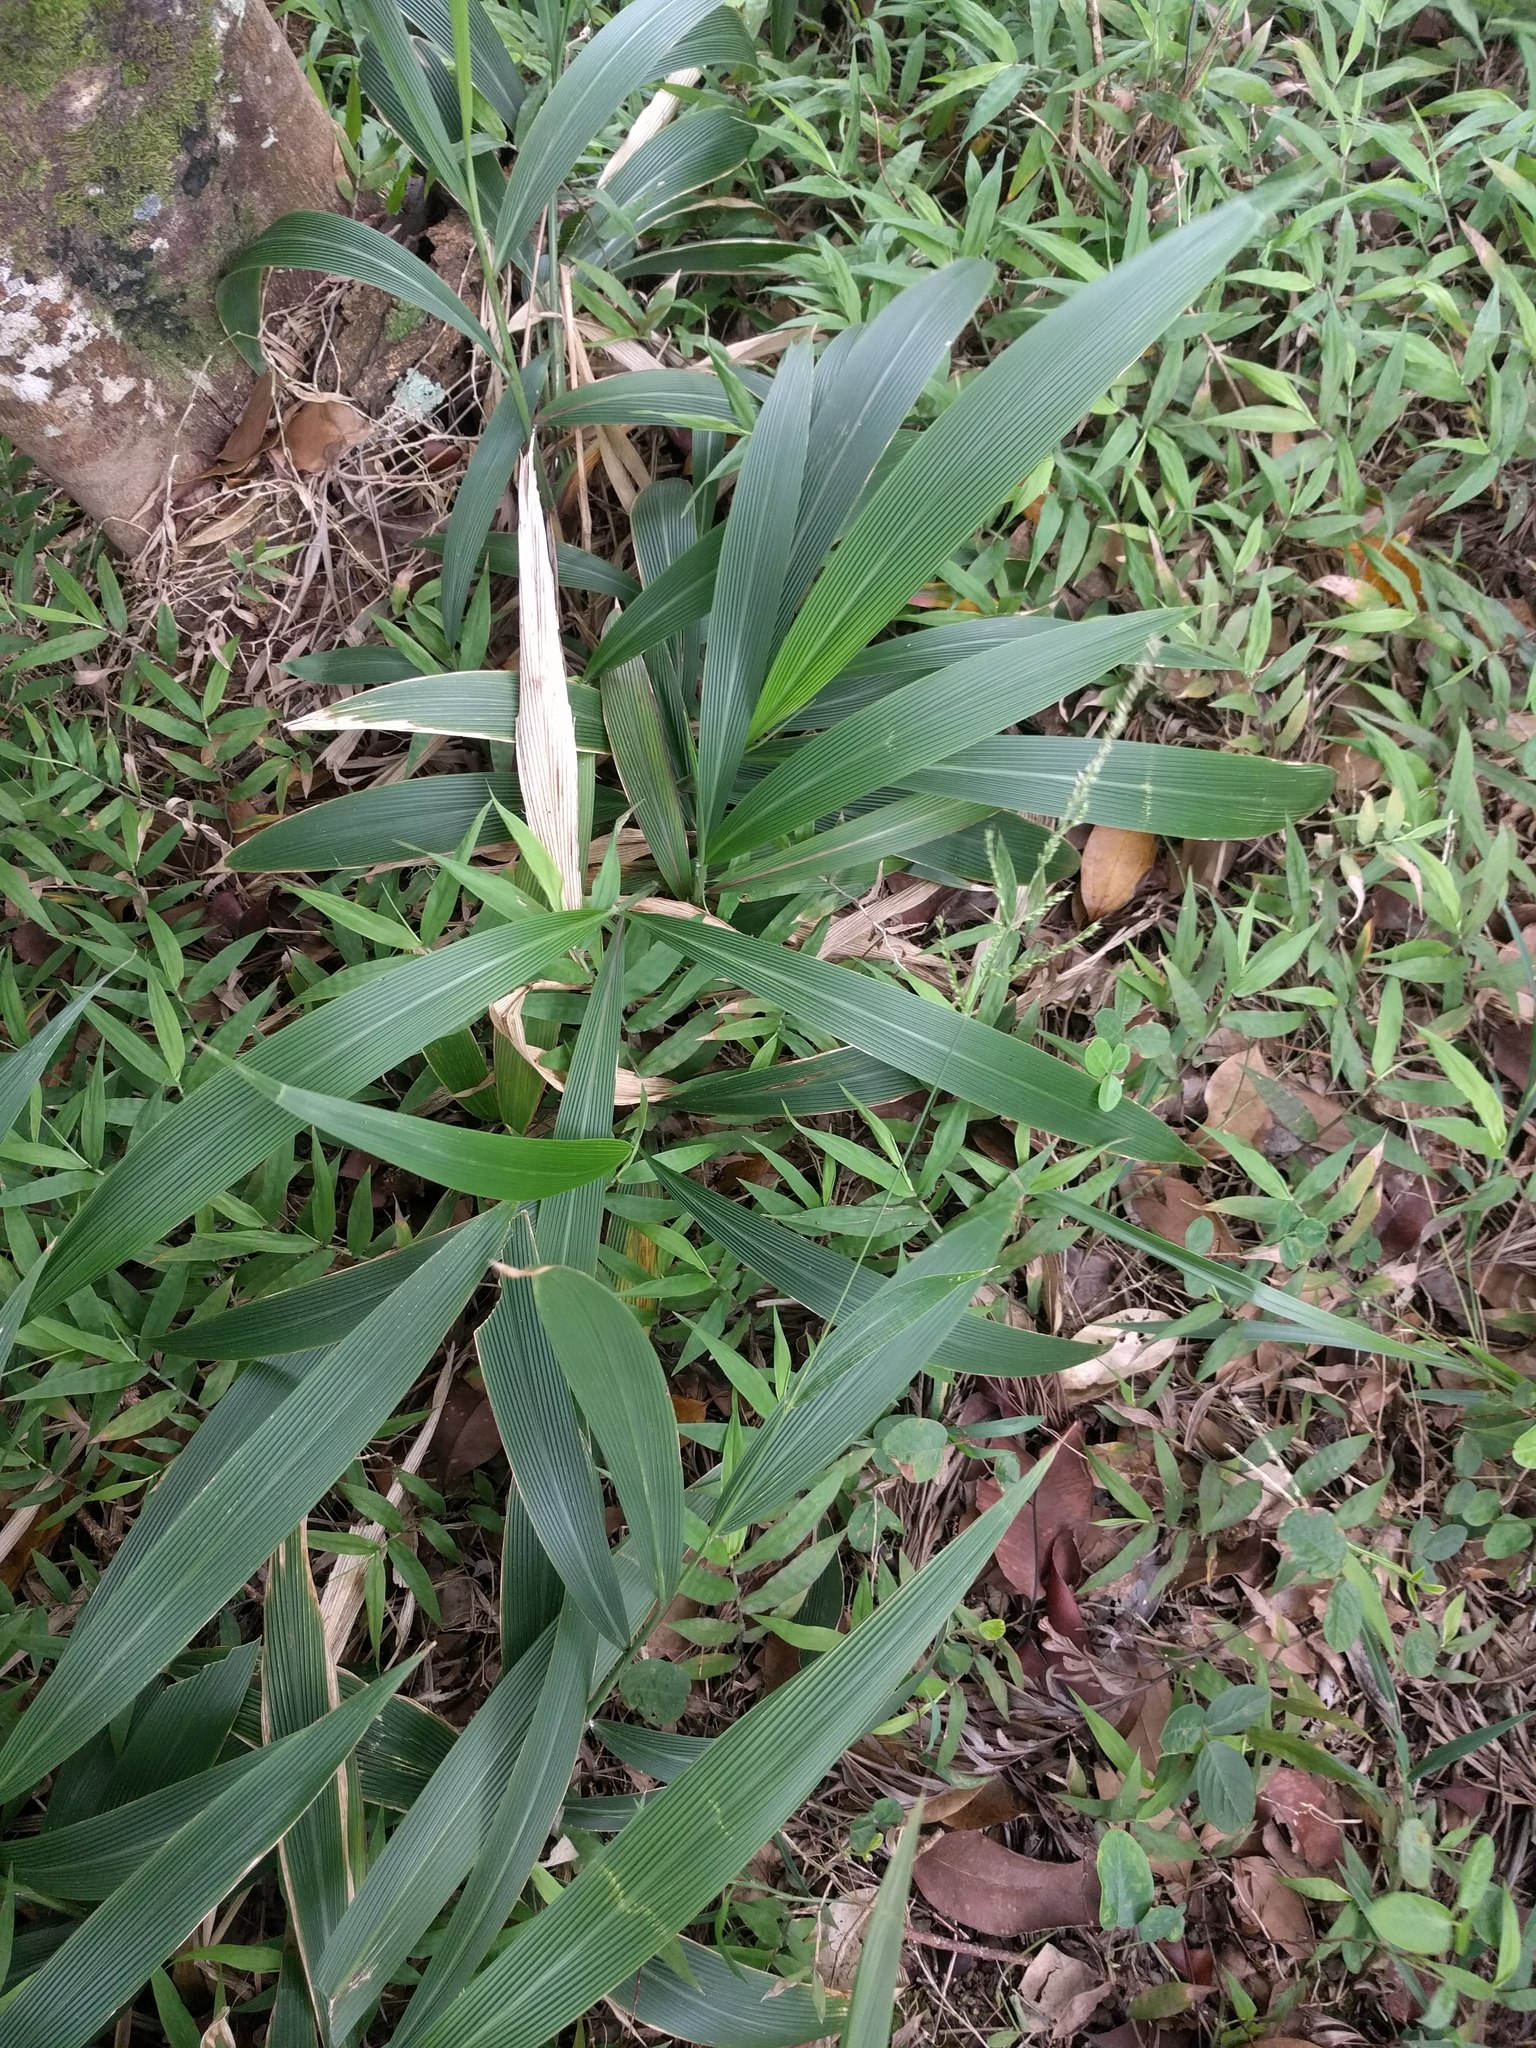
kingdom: Plantae
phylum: Tracheophyta
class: Liliopsida
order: Poales
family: Poaceae
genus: Setaria
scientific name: Setaria palmifolia
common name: Broadleaved bristlegrass
